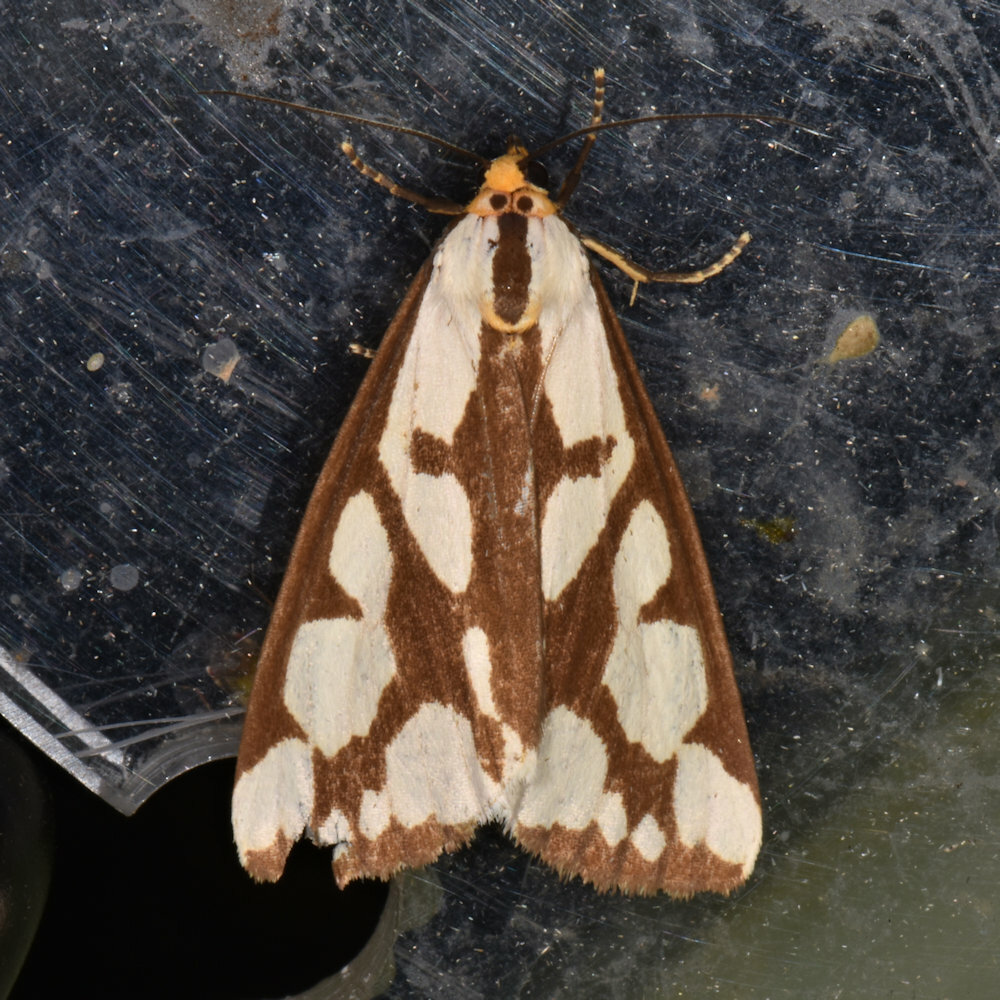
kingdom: Animalia
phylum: Arthropoda
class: Insecta
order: Lepidoptera
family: Erebidae
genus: Haploa
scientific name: Haploa confusa
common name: Confused haploa moth
